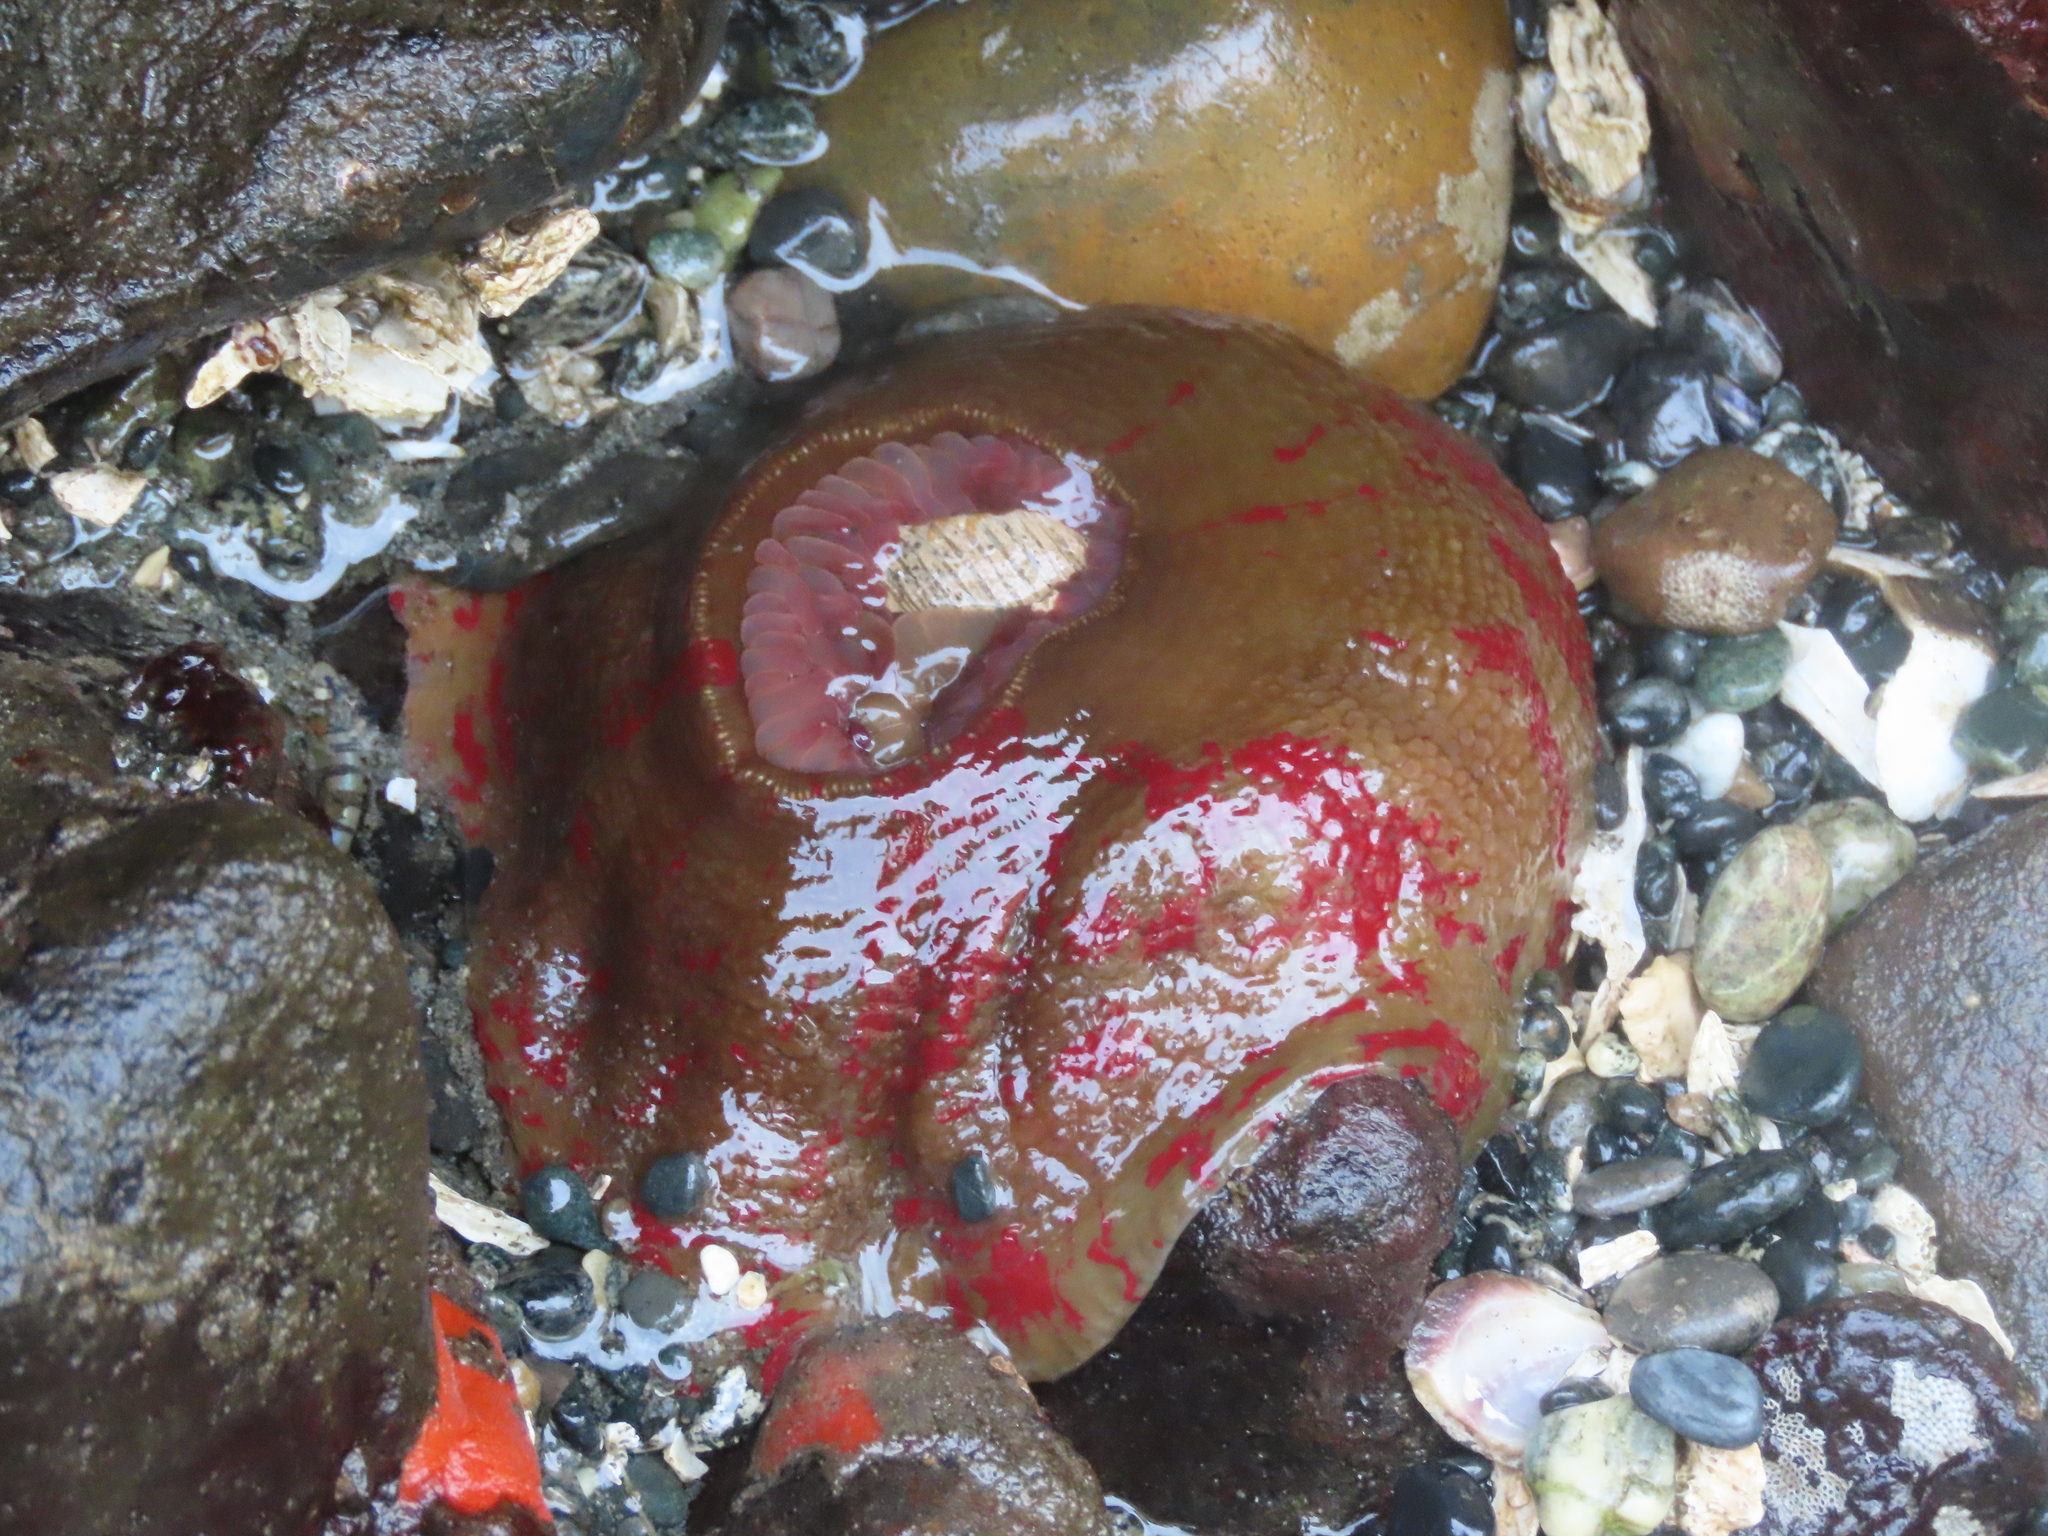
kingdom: Animalia
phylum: Cnidaria
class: Anthozoa
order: Actiniaria
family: Actiniidae
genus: Urticina
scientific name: Urticina grebelnyi
